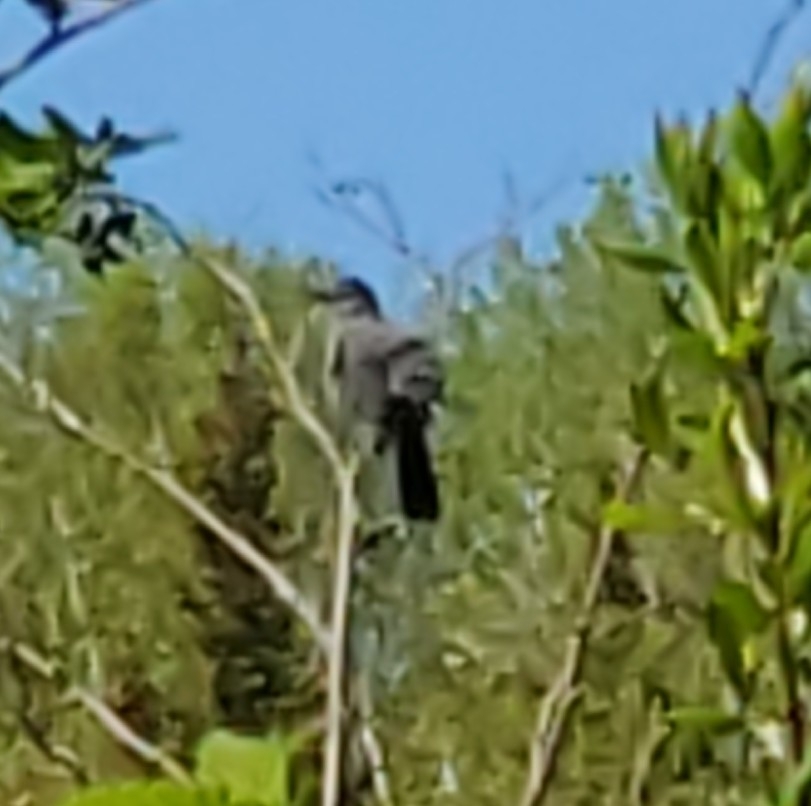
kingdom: Animalia
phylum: Chordata
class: Aves
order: Passeriformes
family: Mimidae
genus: Dumetella
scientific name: Dumetella carolinensis
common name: Gray catbird
